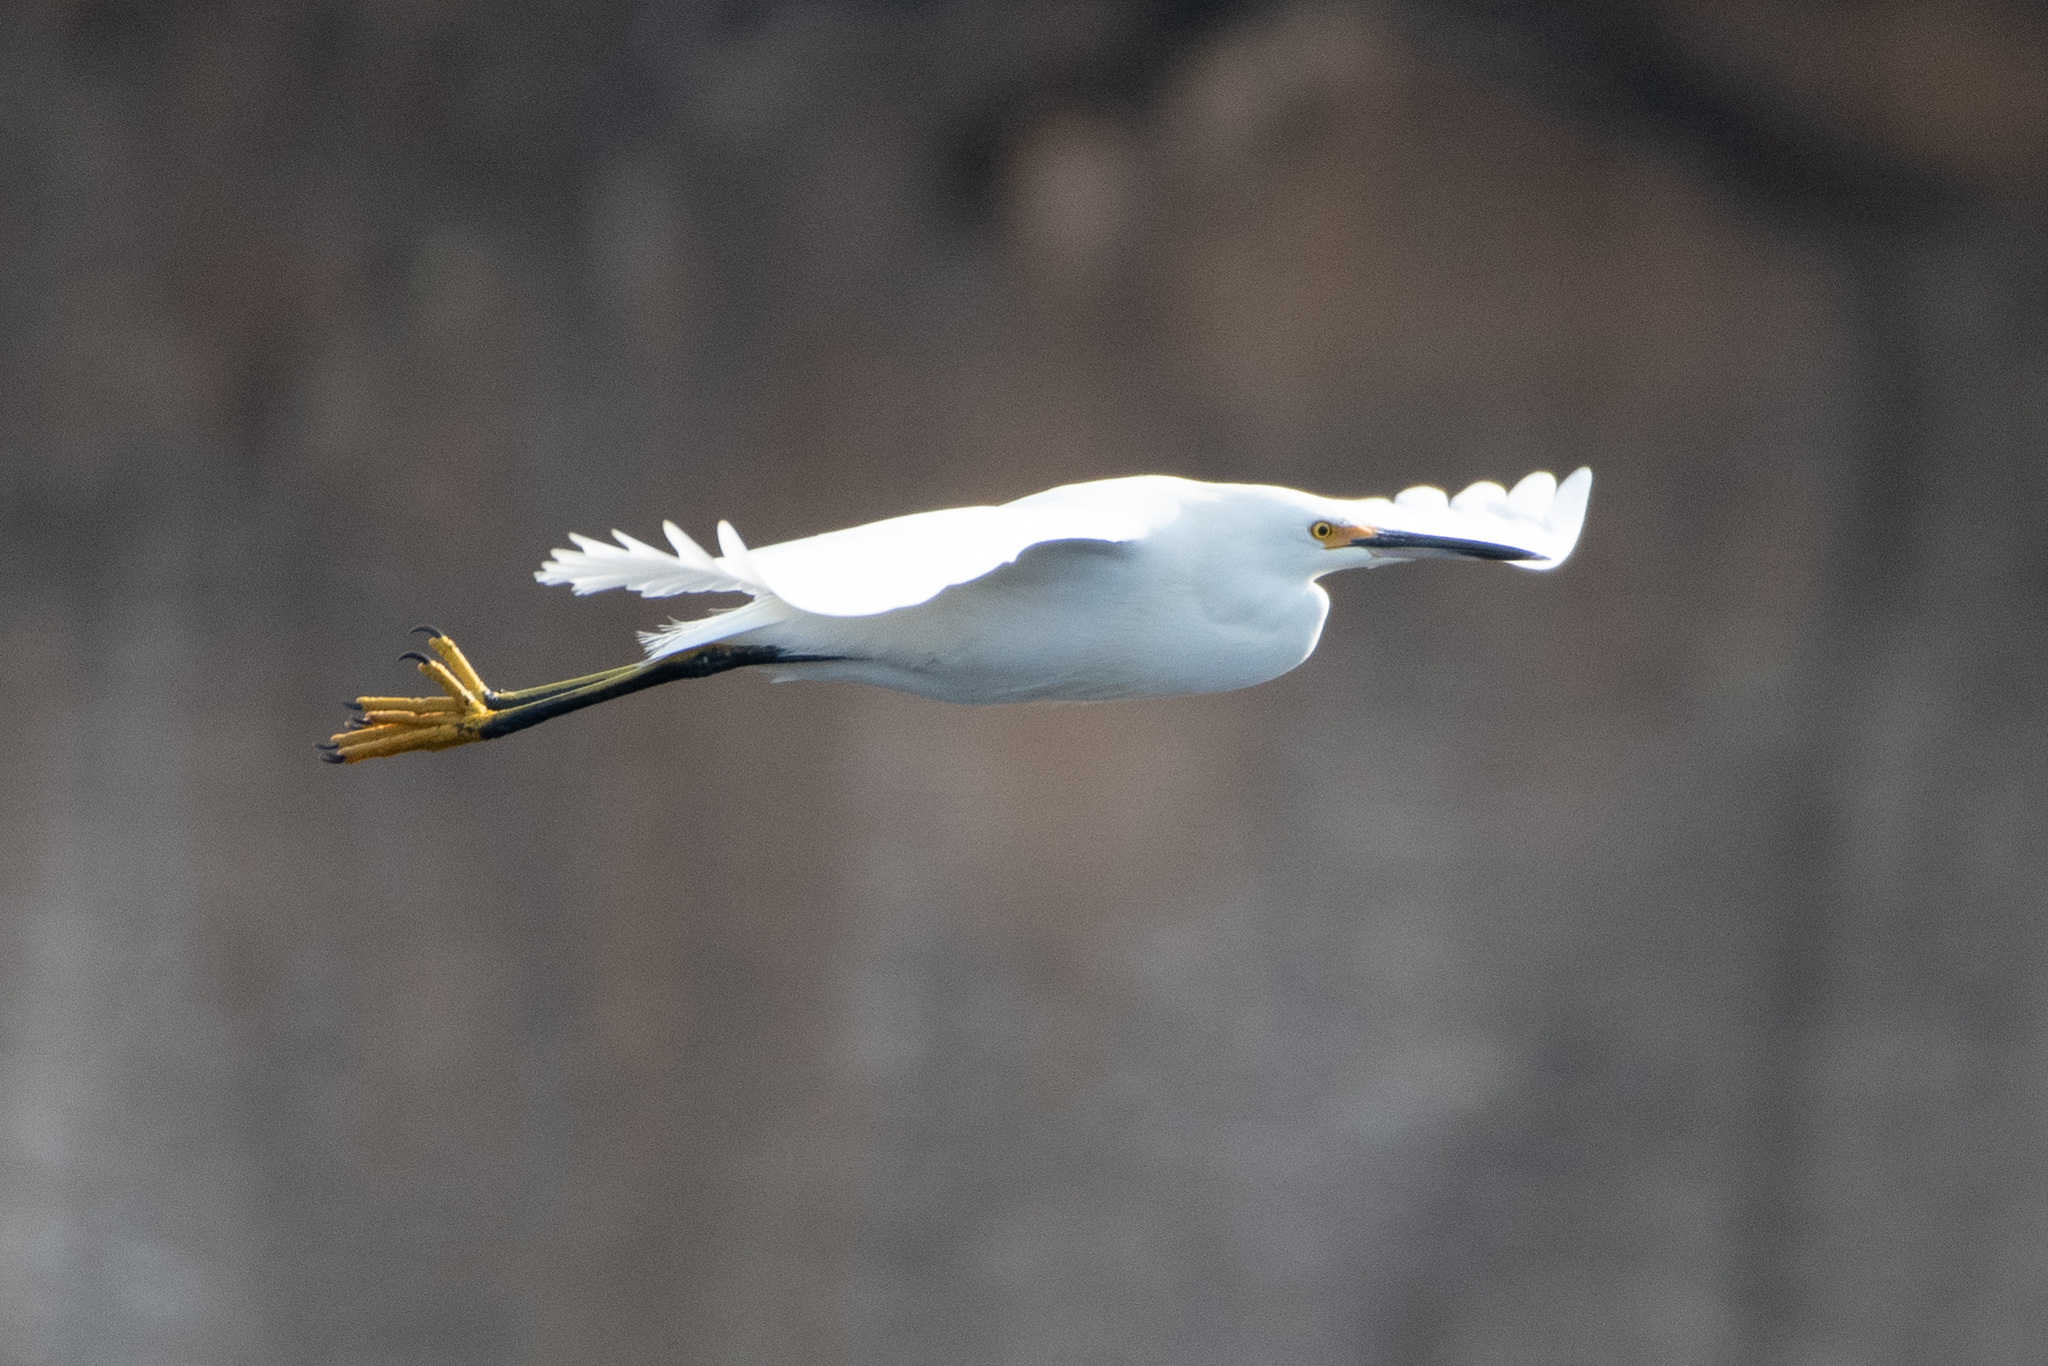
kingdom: Animalia
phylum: Chordata
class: Aves
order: Pelecaniformes
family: Ardeidae
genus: Egretta
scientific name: Egretta thula
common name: Snowy egret
